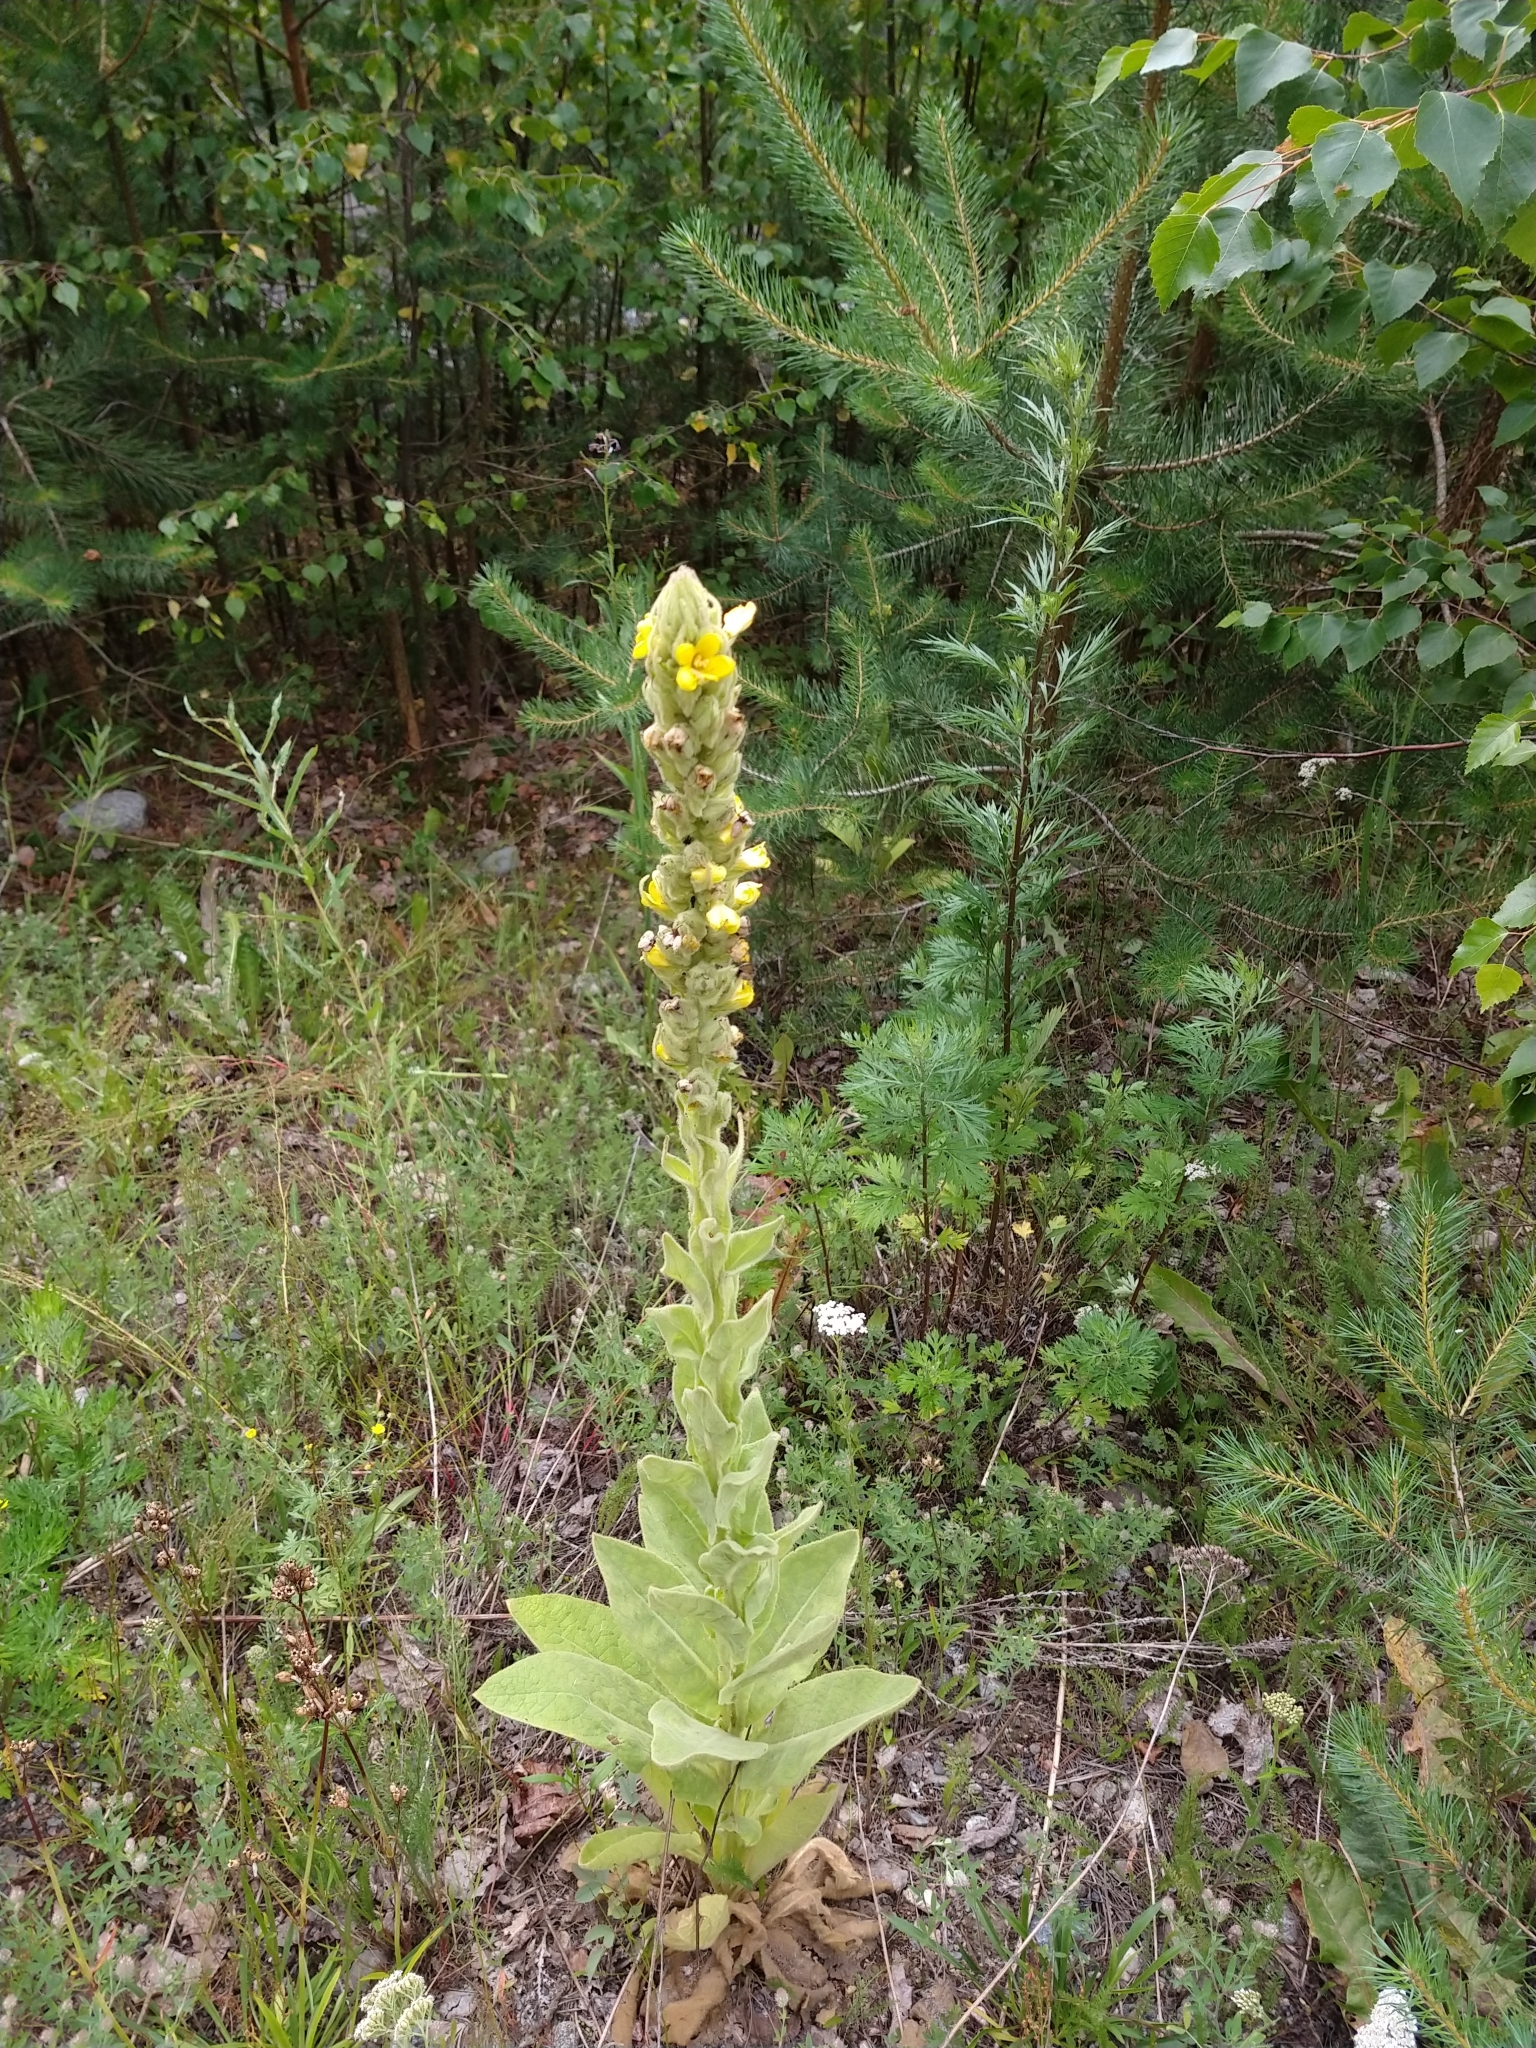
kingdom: Plantae
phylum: Tracheophyta
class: Magnoliopsida
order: Lamiales
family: Scrophulariaceae
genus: Verbascum
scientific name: Verbascum thapsus
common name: Common mullein
